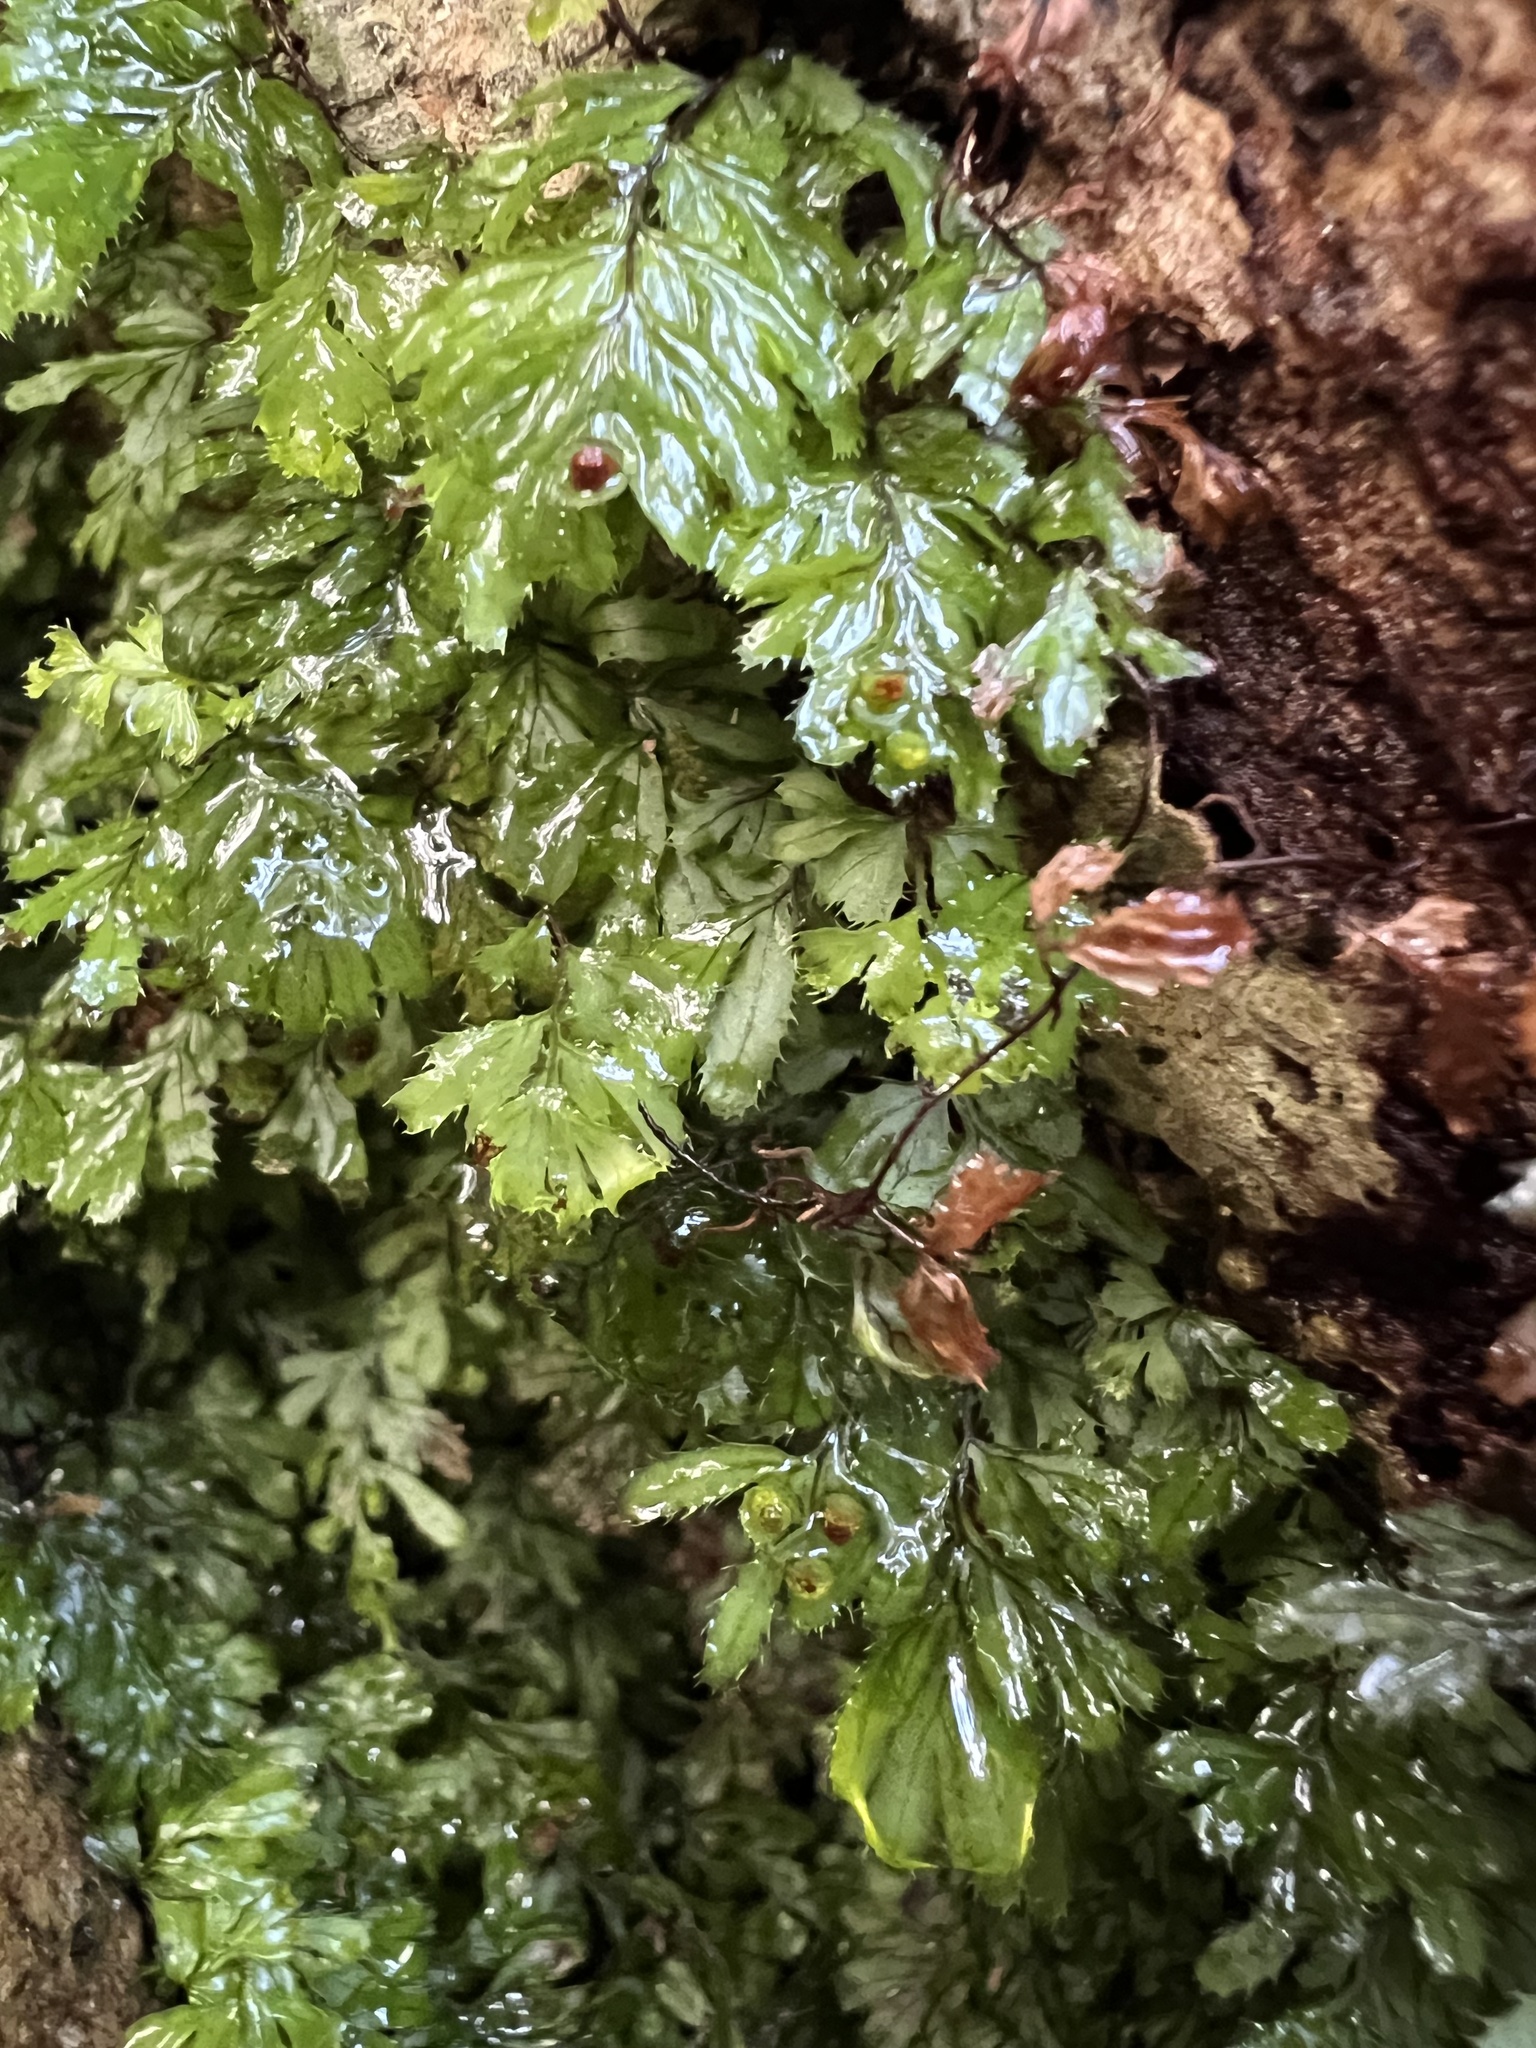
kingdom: Plantae
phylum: Tracheophyta
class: Polypodiopsida
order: Hymenophyllales
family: Hymenophyllaceae
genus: Hymenophyllum
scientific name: Hymenophyllum revolutum
